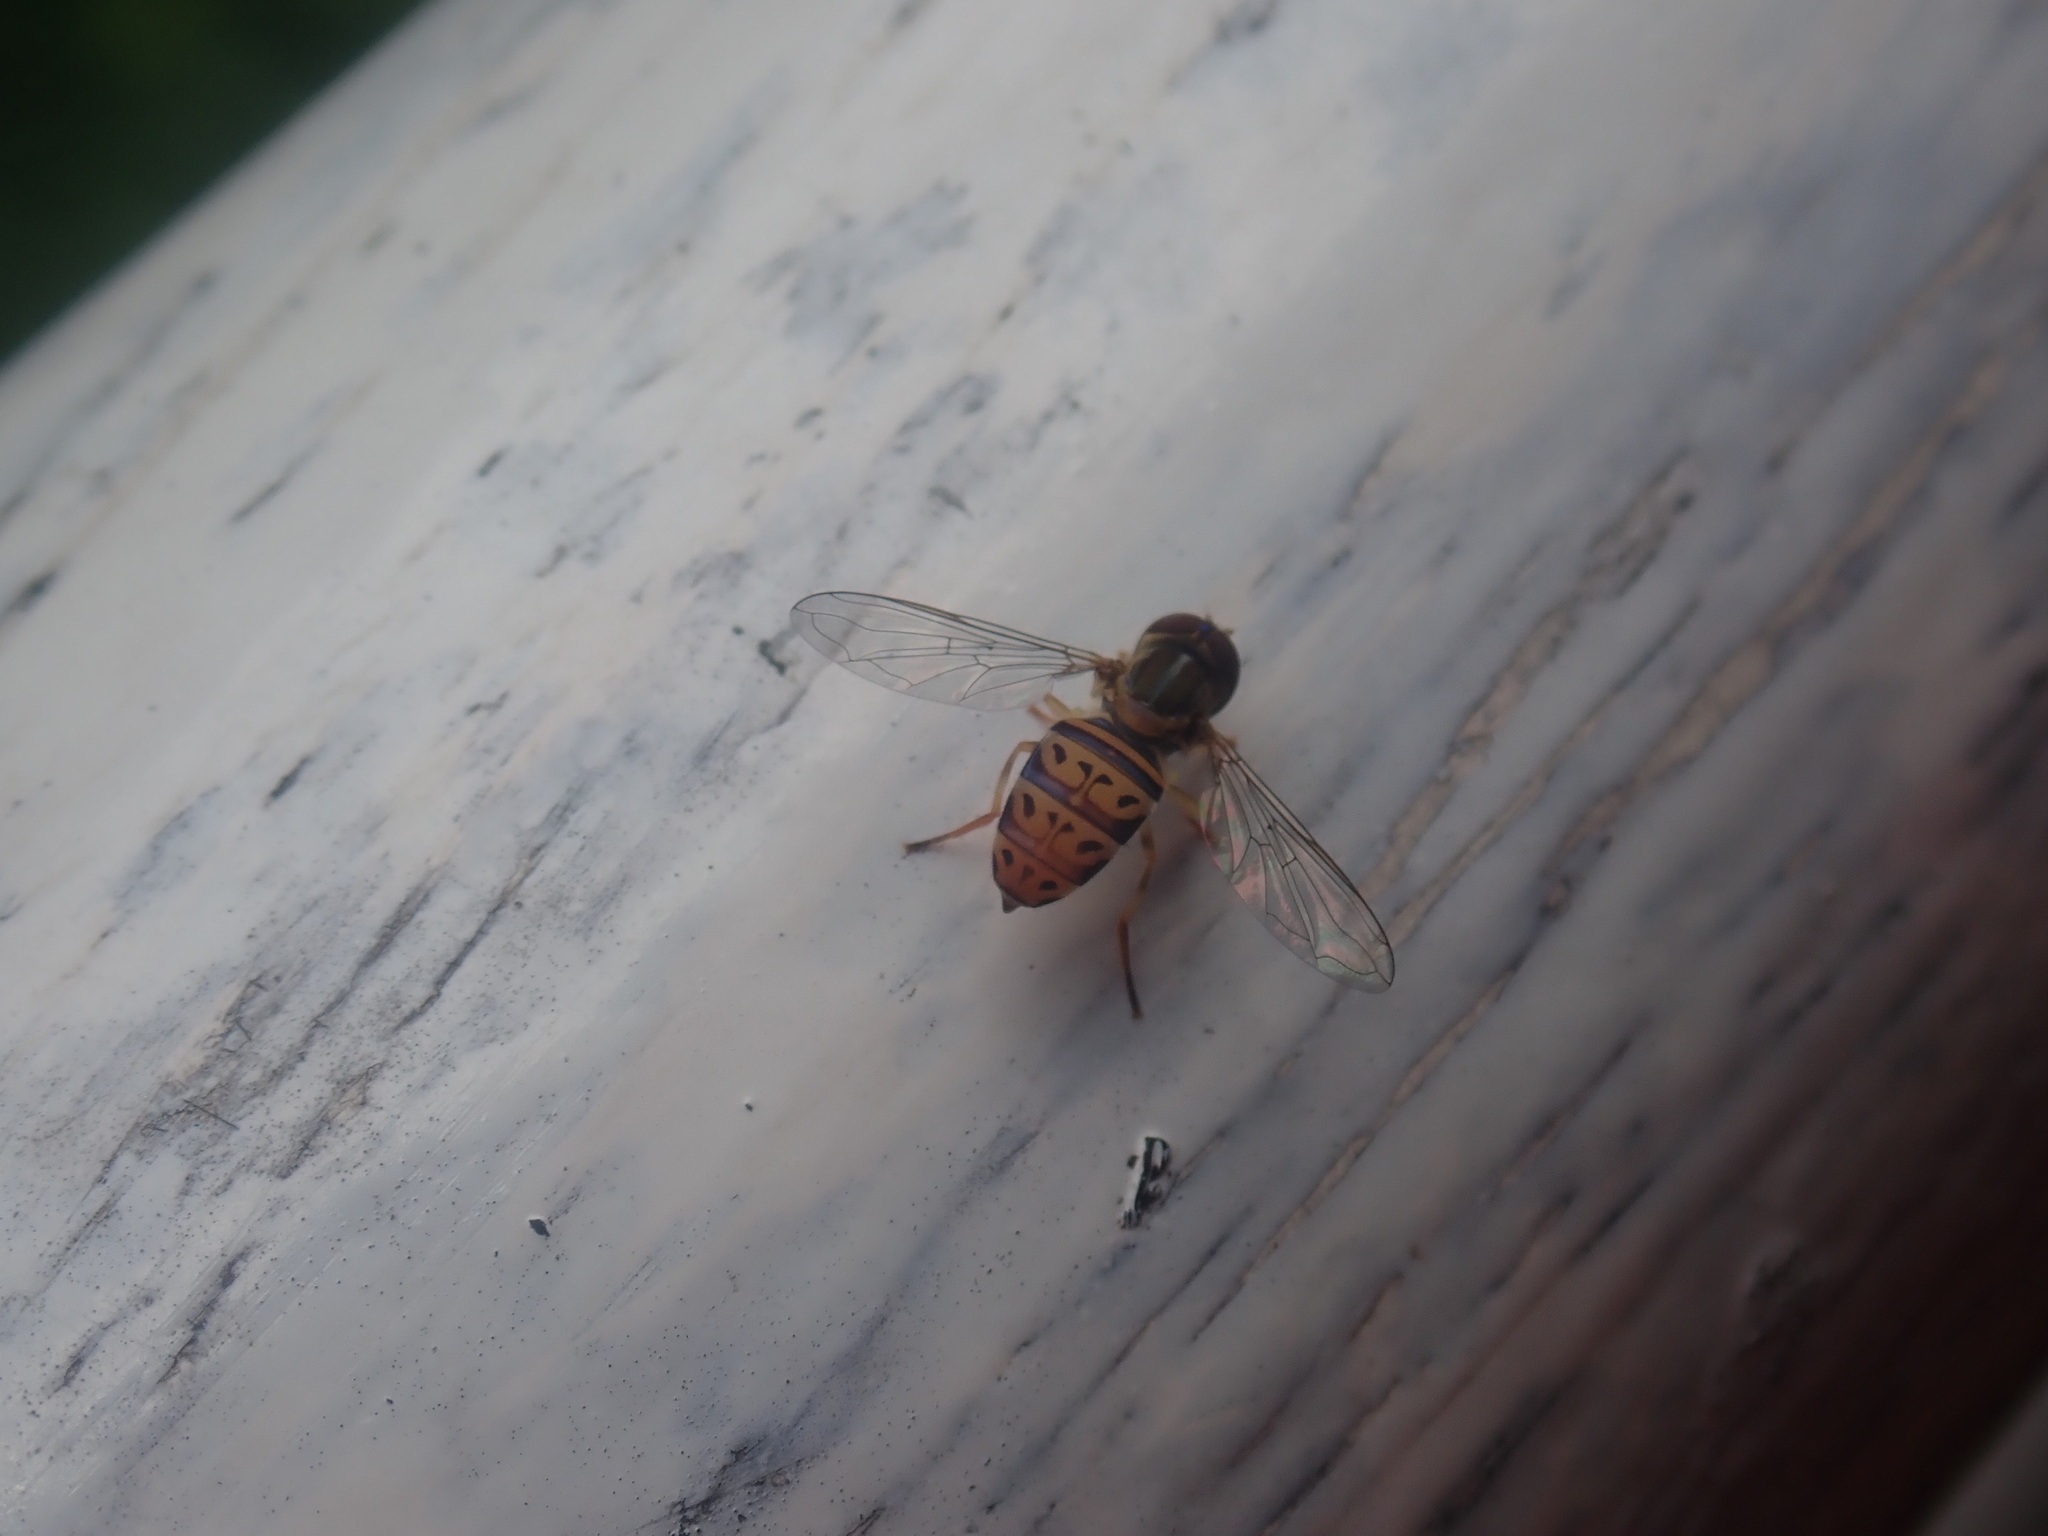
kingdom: Animalia
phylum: Arthropoda
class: Insecta
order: Diptera
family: Syrphidae
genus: Toxomerus
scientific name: Toxomerus pulchellus
